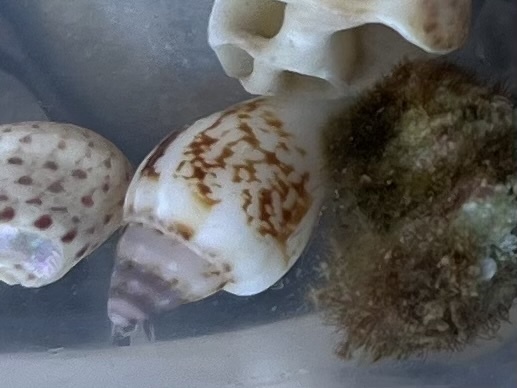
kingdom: Animalia
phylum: Mollusca
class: Gastropoda
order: Neogastropoda
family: Columbellidae
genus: Columbella
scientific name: Columbella rustica
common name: Rustic dove shell
